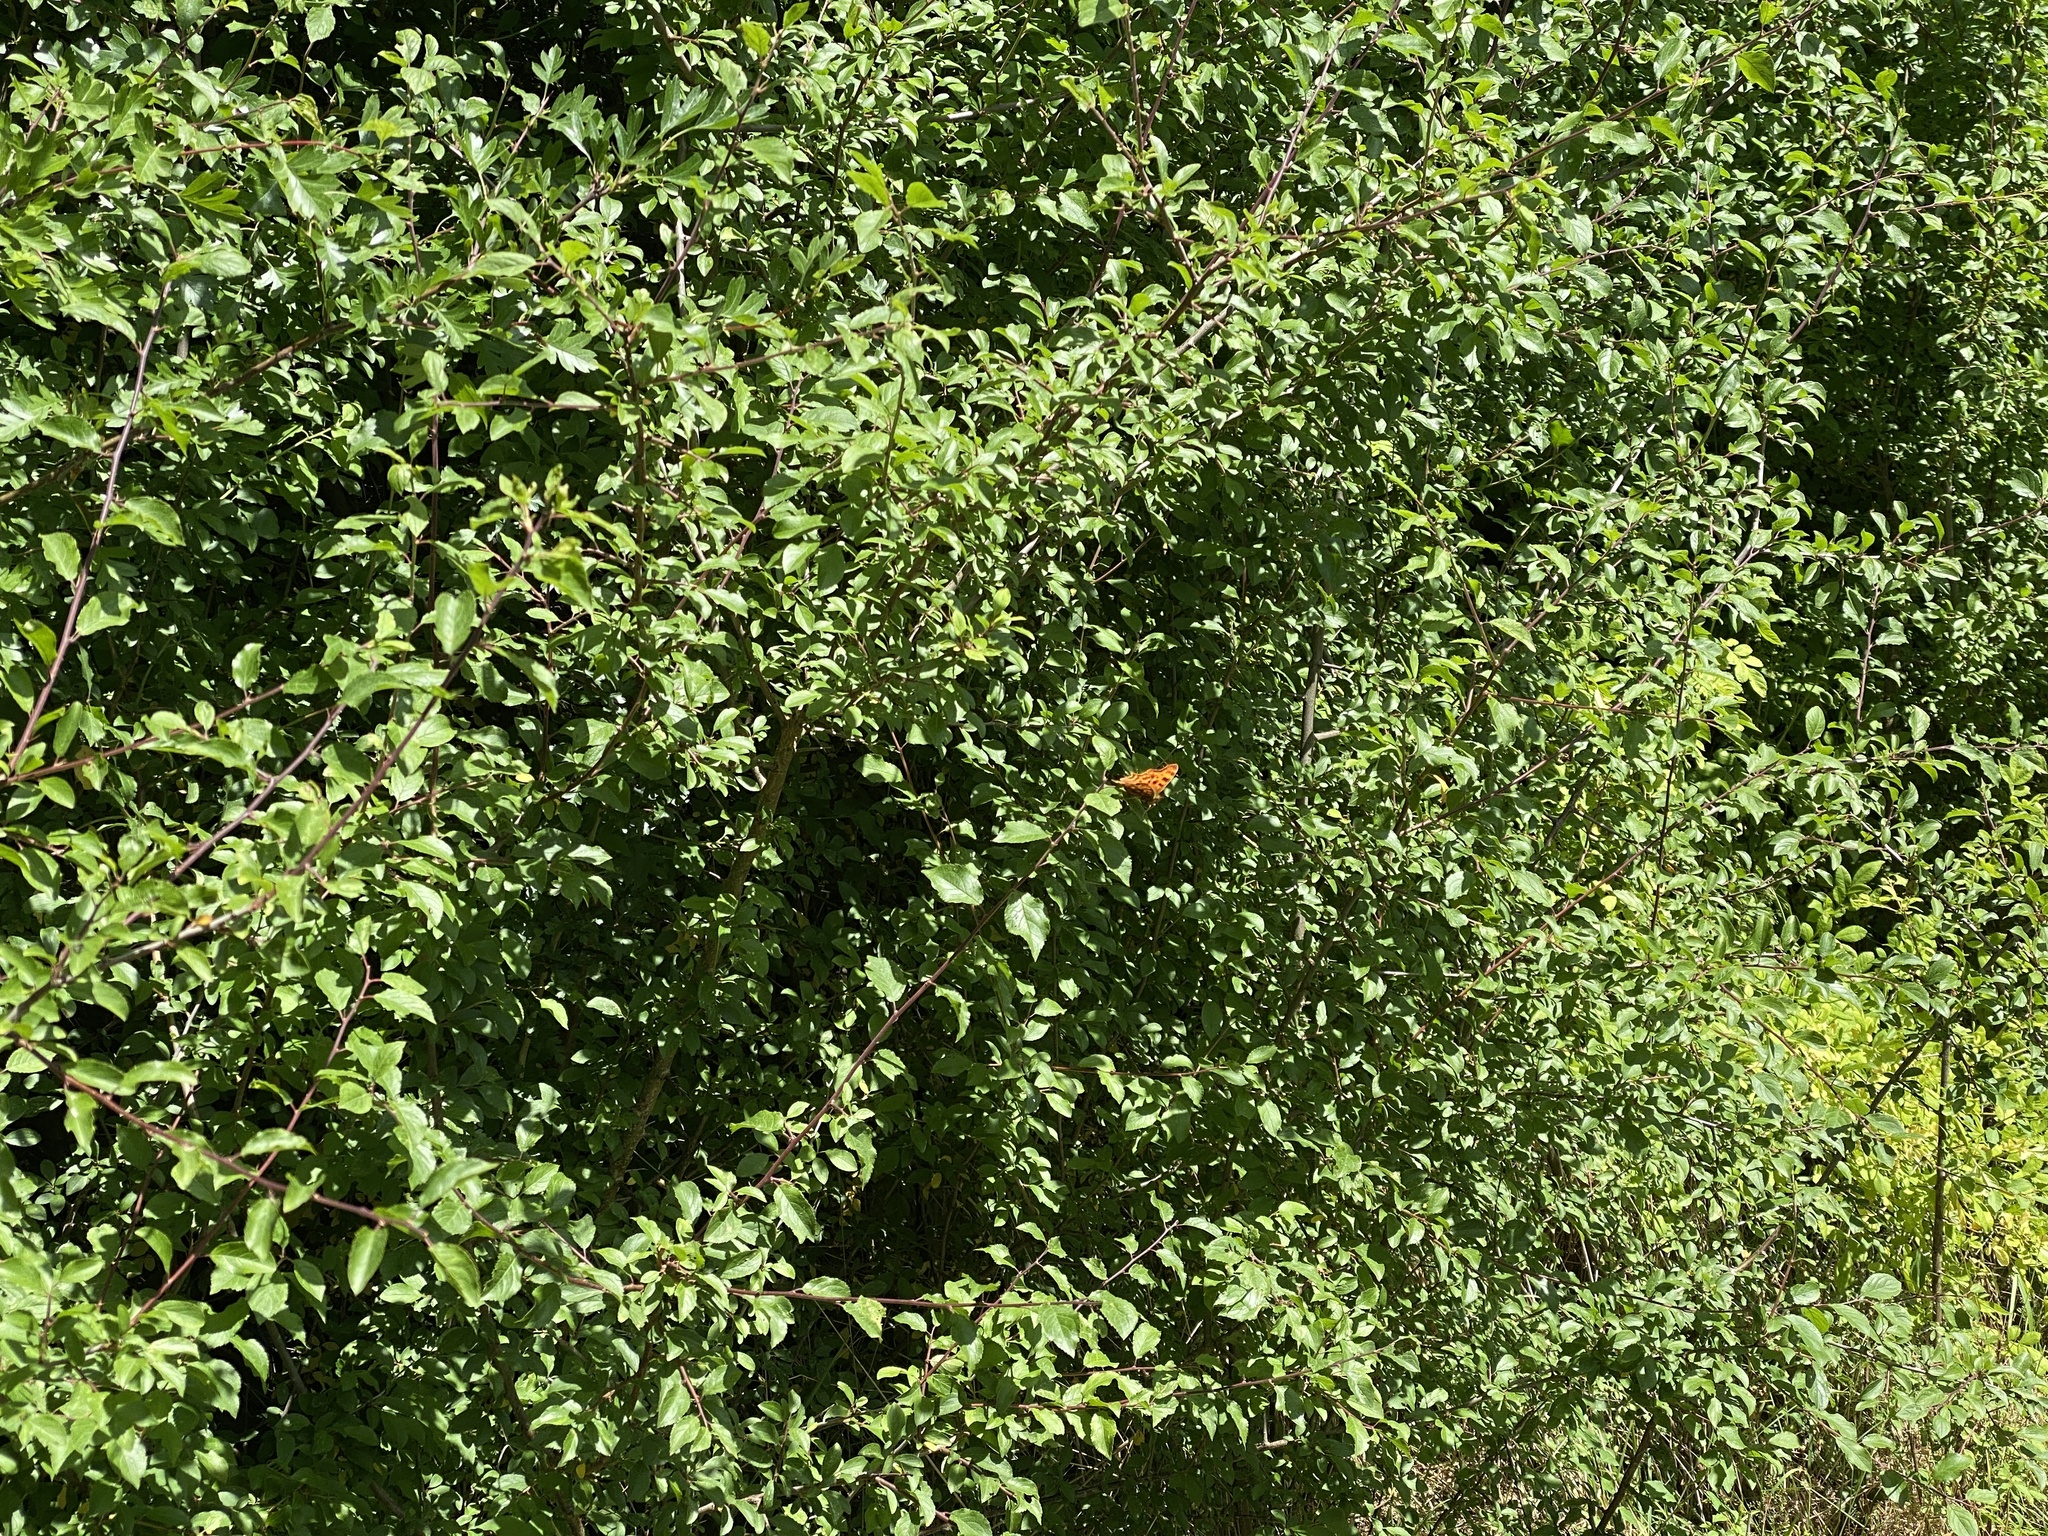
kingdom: Animalia
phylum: Arthropoda
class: Insecta
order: Lepidoptera
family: Nymphalidae
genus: Polygonia
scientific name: Polygonia c-album
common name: Comma
